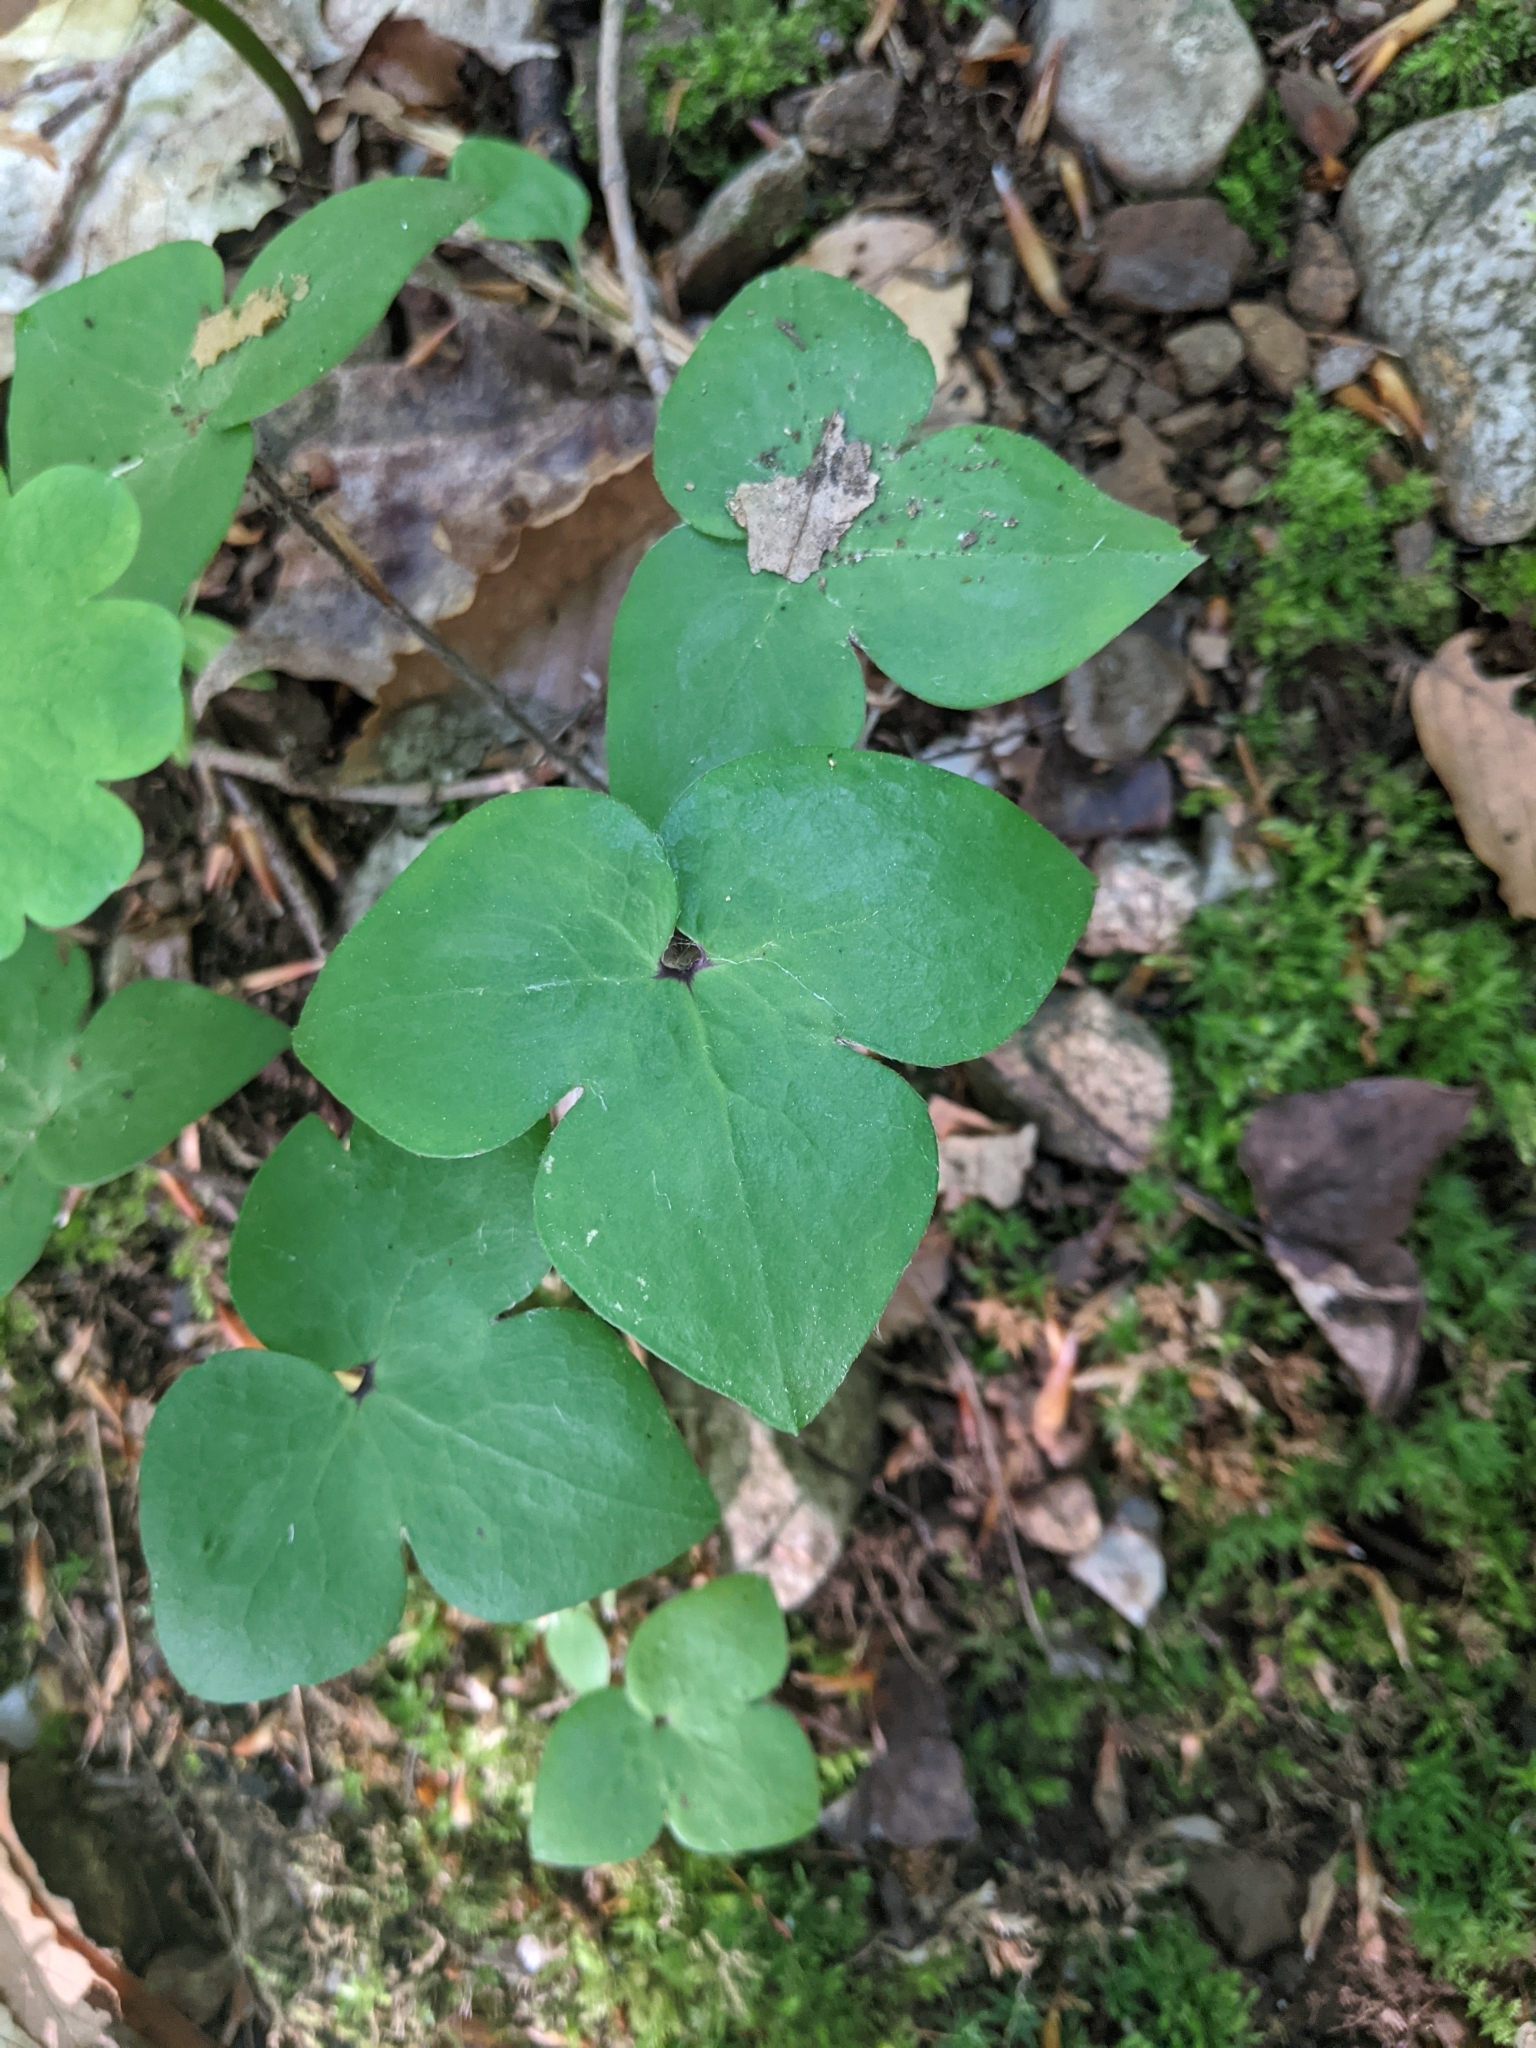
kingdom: Plantae
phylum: Tracheophyta
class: Magnoliopsida
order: Ranunculales
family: Ranunculaceae
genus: Hepatica
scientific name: Hepatica acutiloba
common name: Sharp-lobed hepatica
